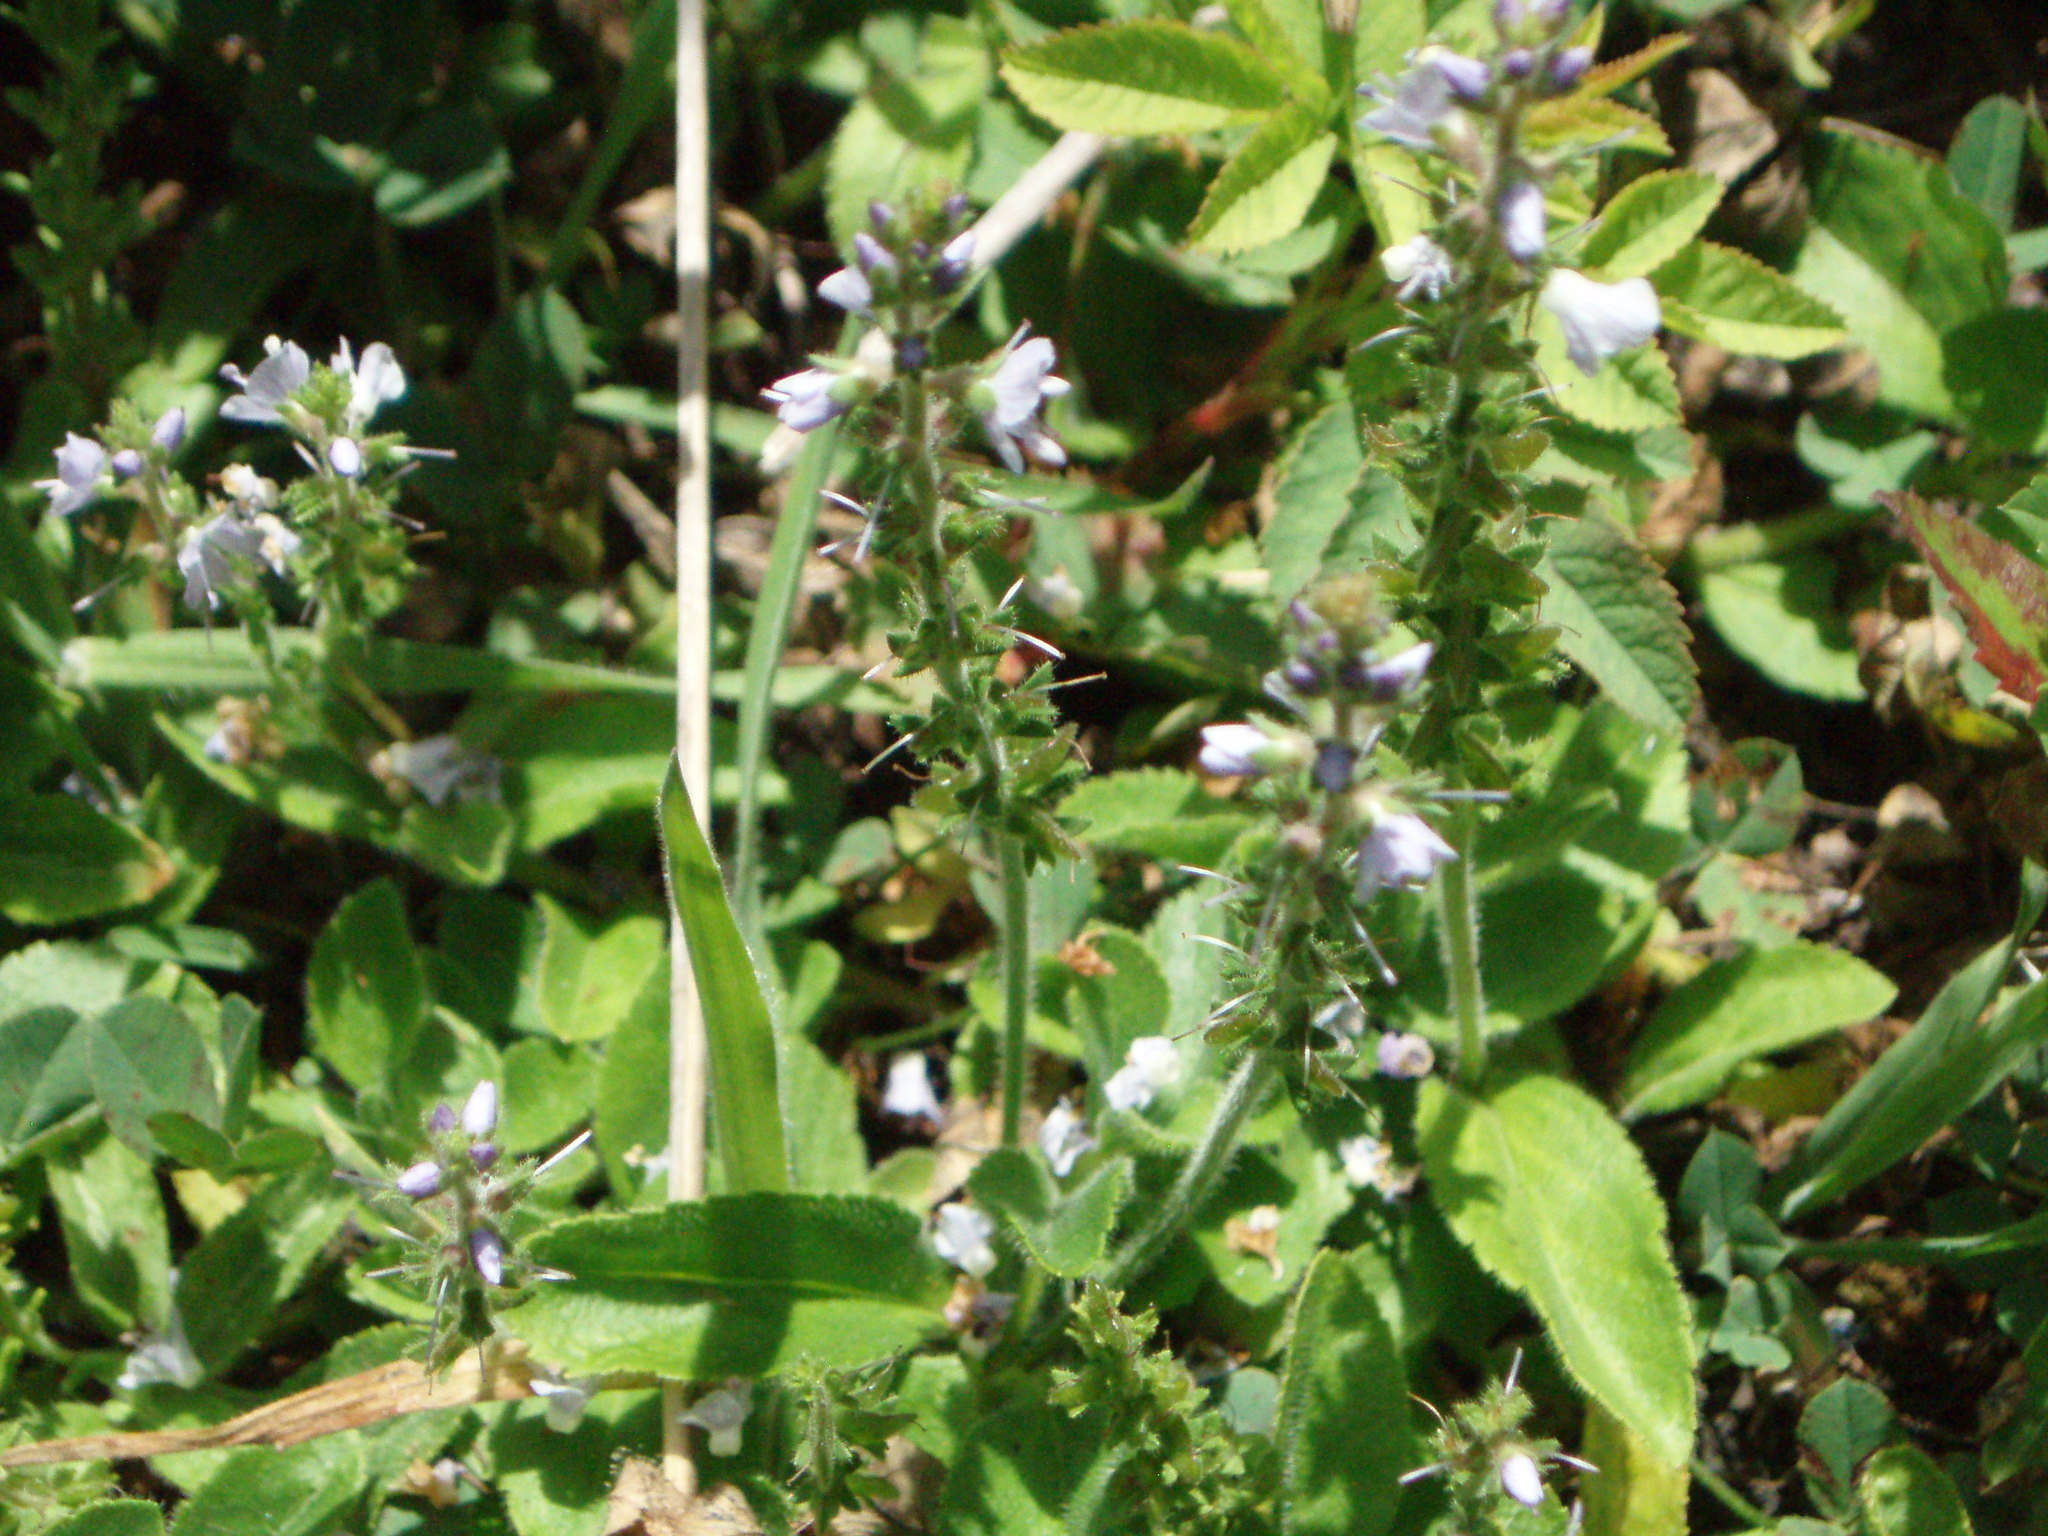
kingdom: Plantae
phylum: Tracheophyta
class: Magnoliopsida
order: Lamiales
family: Plantaginaceae
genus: Veronica
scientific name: Veronica officinalis
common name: Common speedwell
